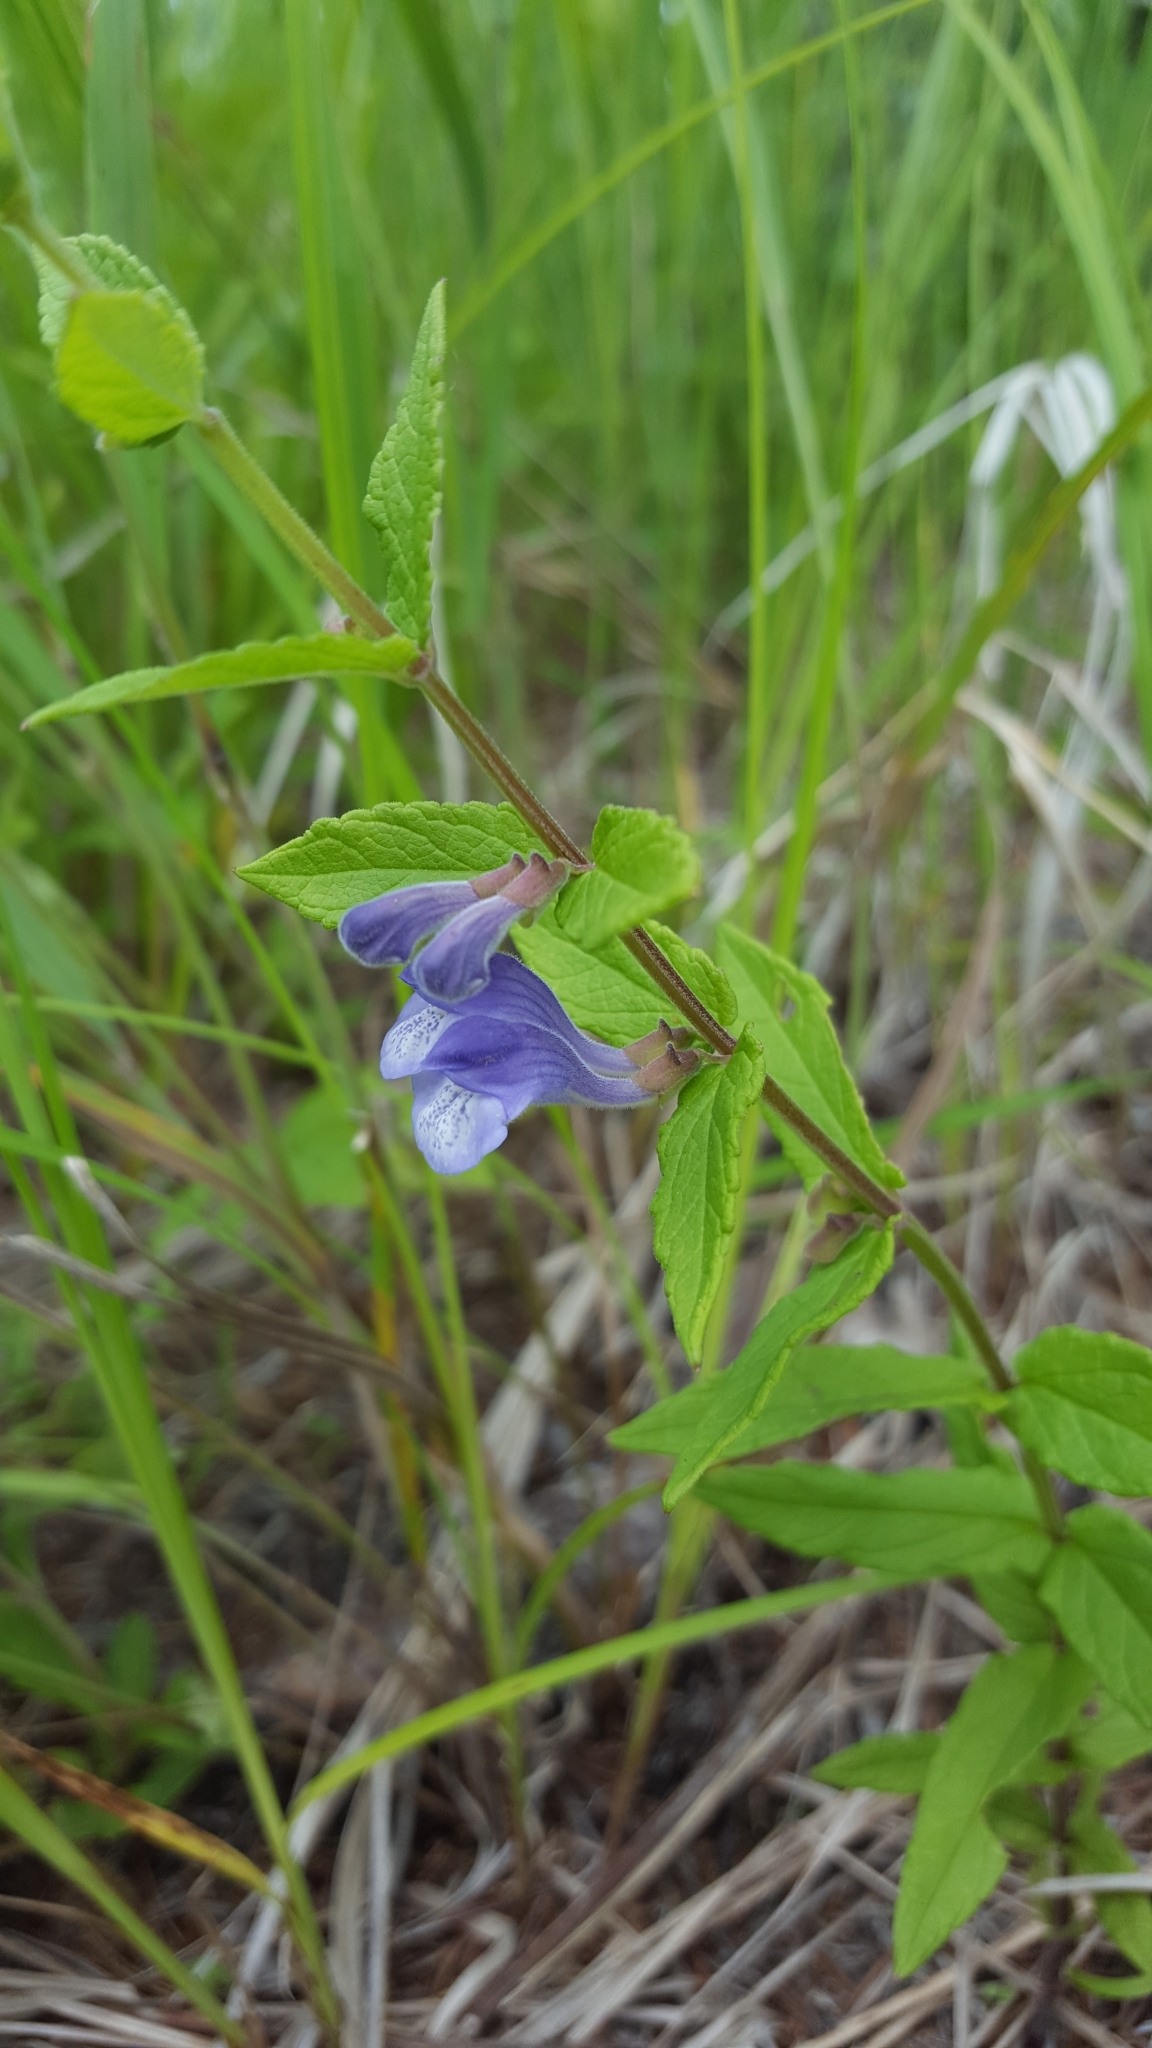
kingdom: Plantae
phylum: Tracheophyta
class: Magnoliopsida
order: Lamiales
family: Lamiaceae
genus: Scutellaria
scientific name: Scutellaria galericulata
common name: Skullcap
